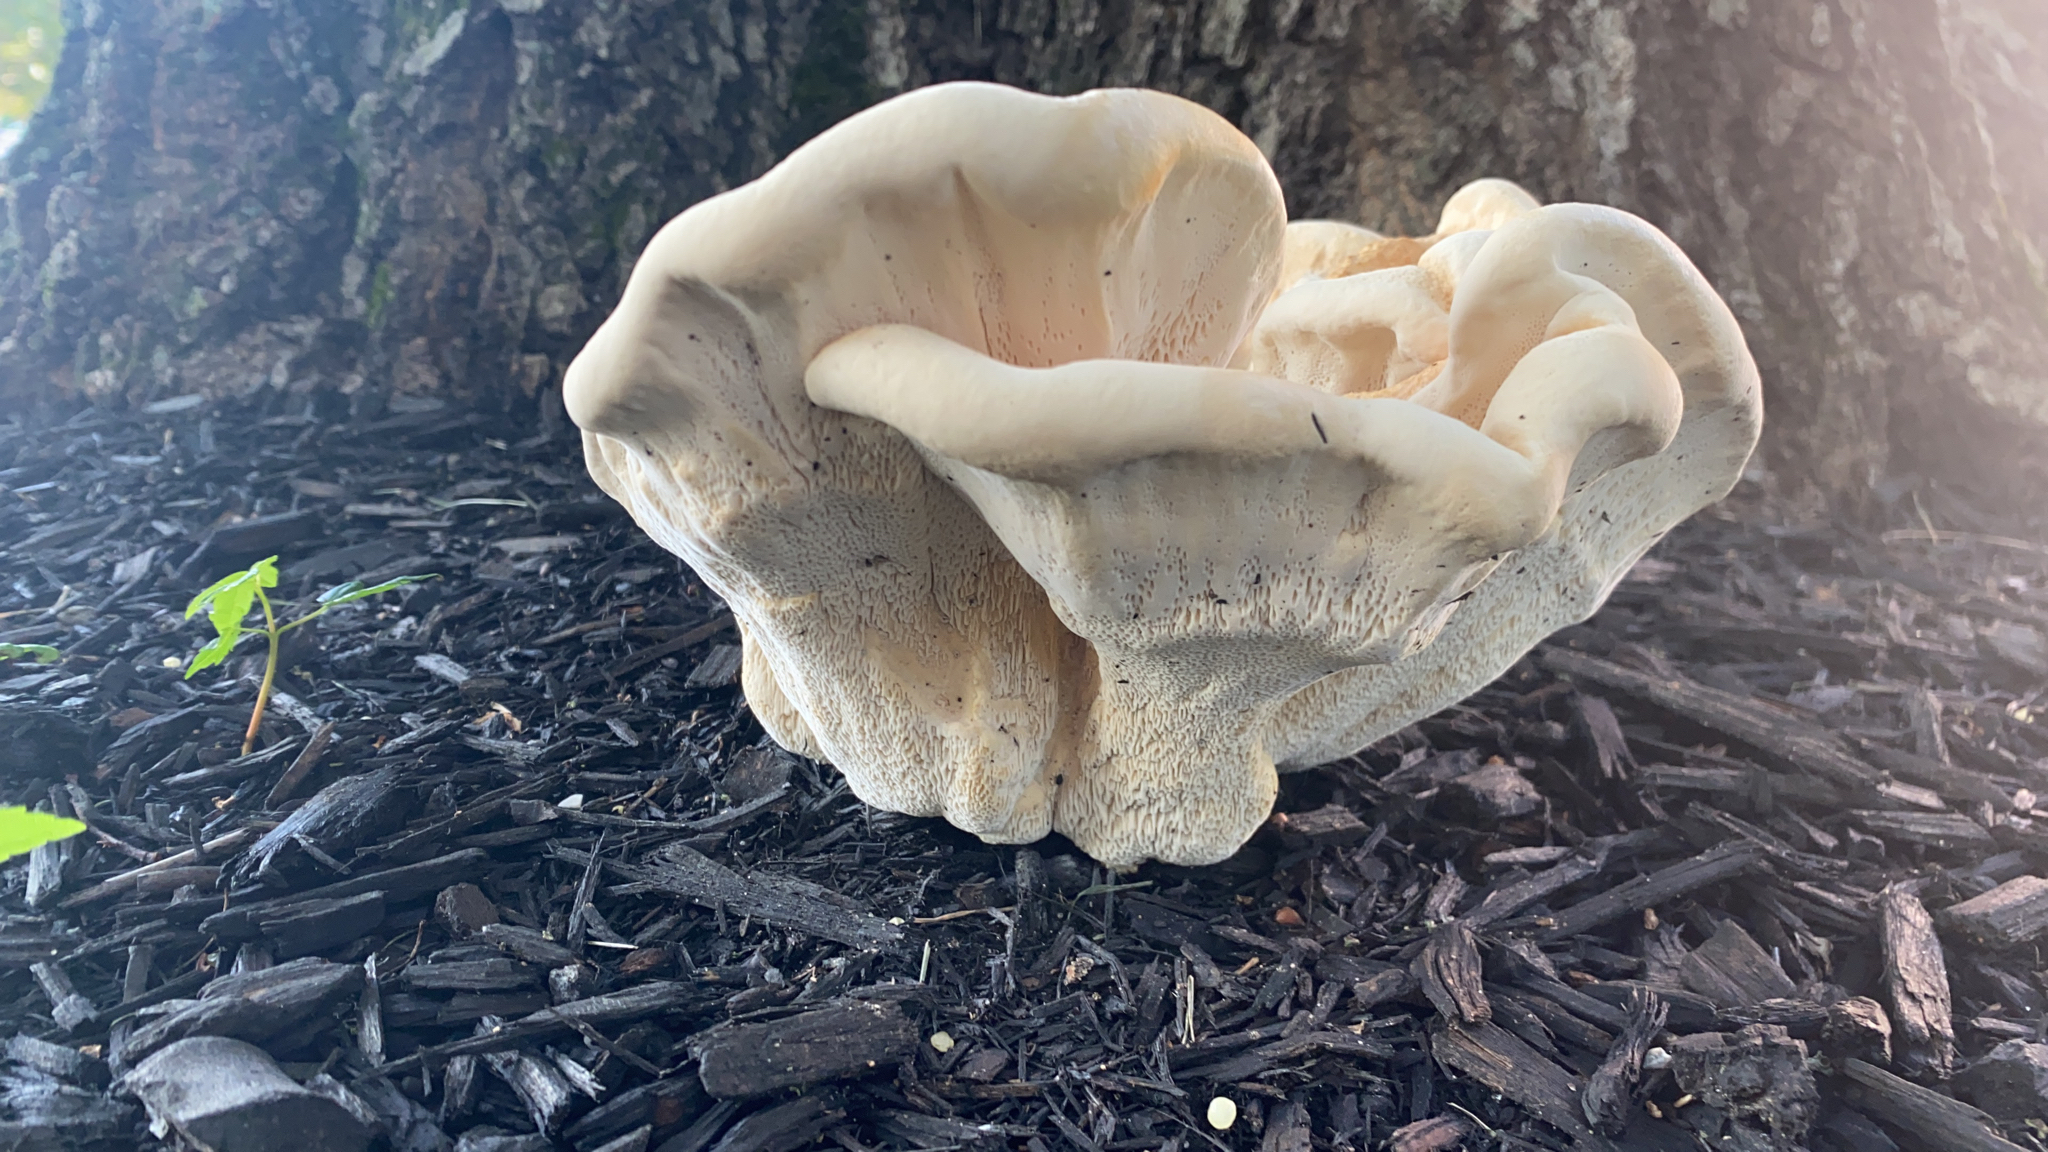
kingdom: Fungi
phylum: Basidiomycota
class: Agaricomycetes
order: Russulales
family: Bondarzewiaceae
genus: Bondarzewia
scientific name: Bondarzewia berkeleyi
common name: Berkeley's polypore
